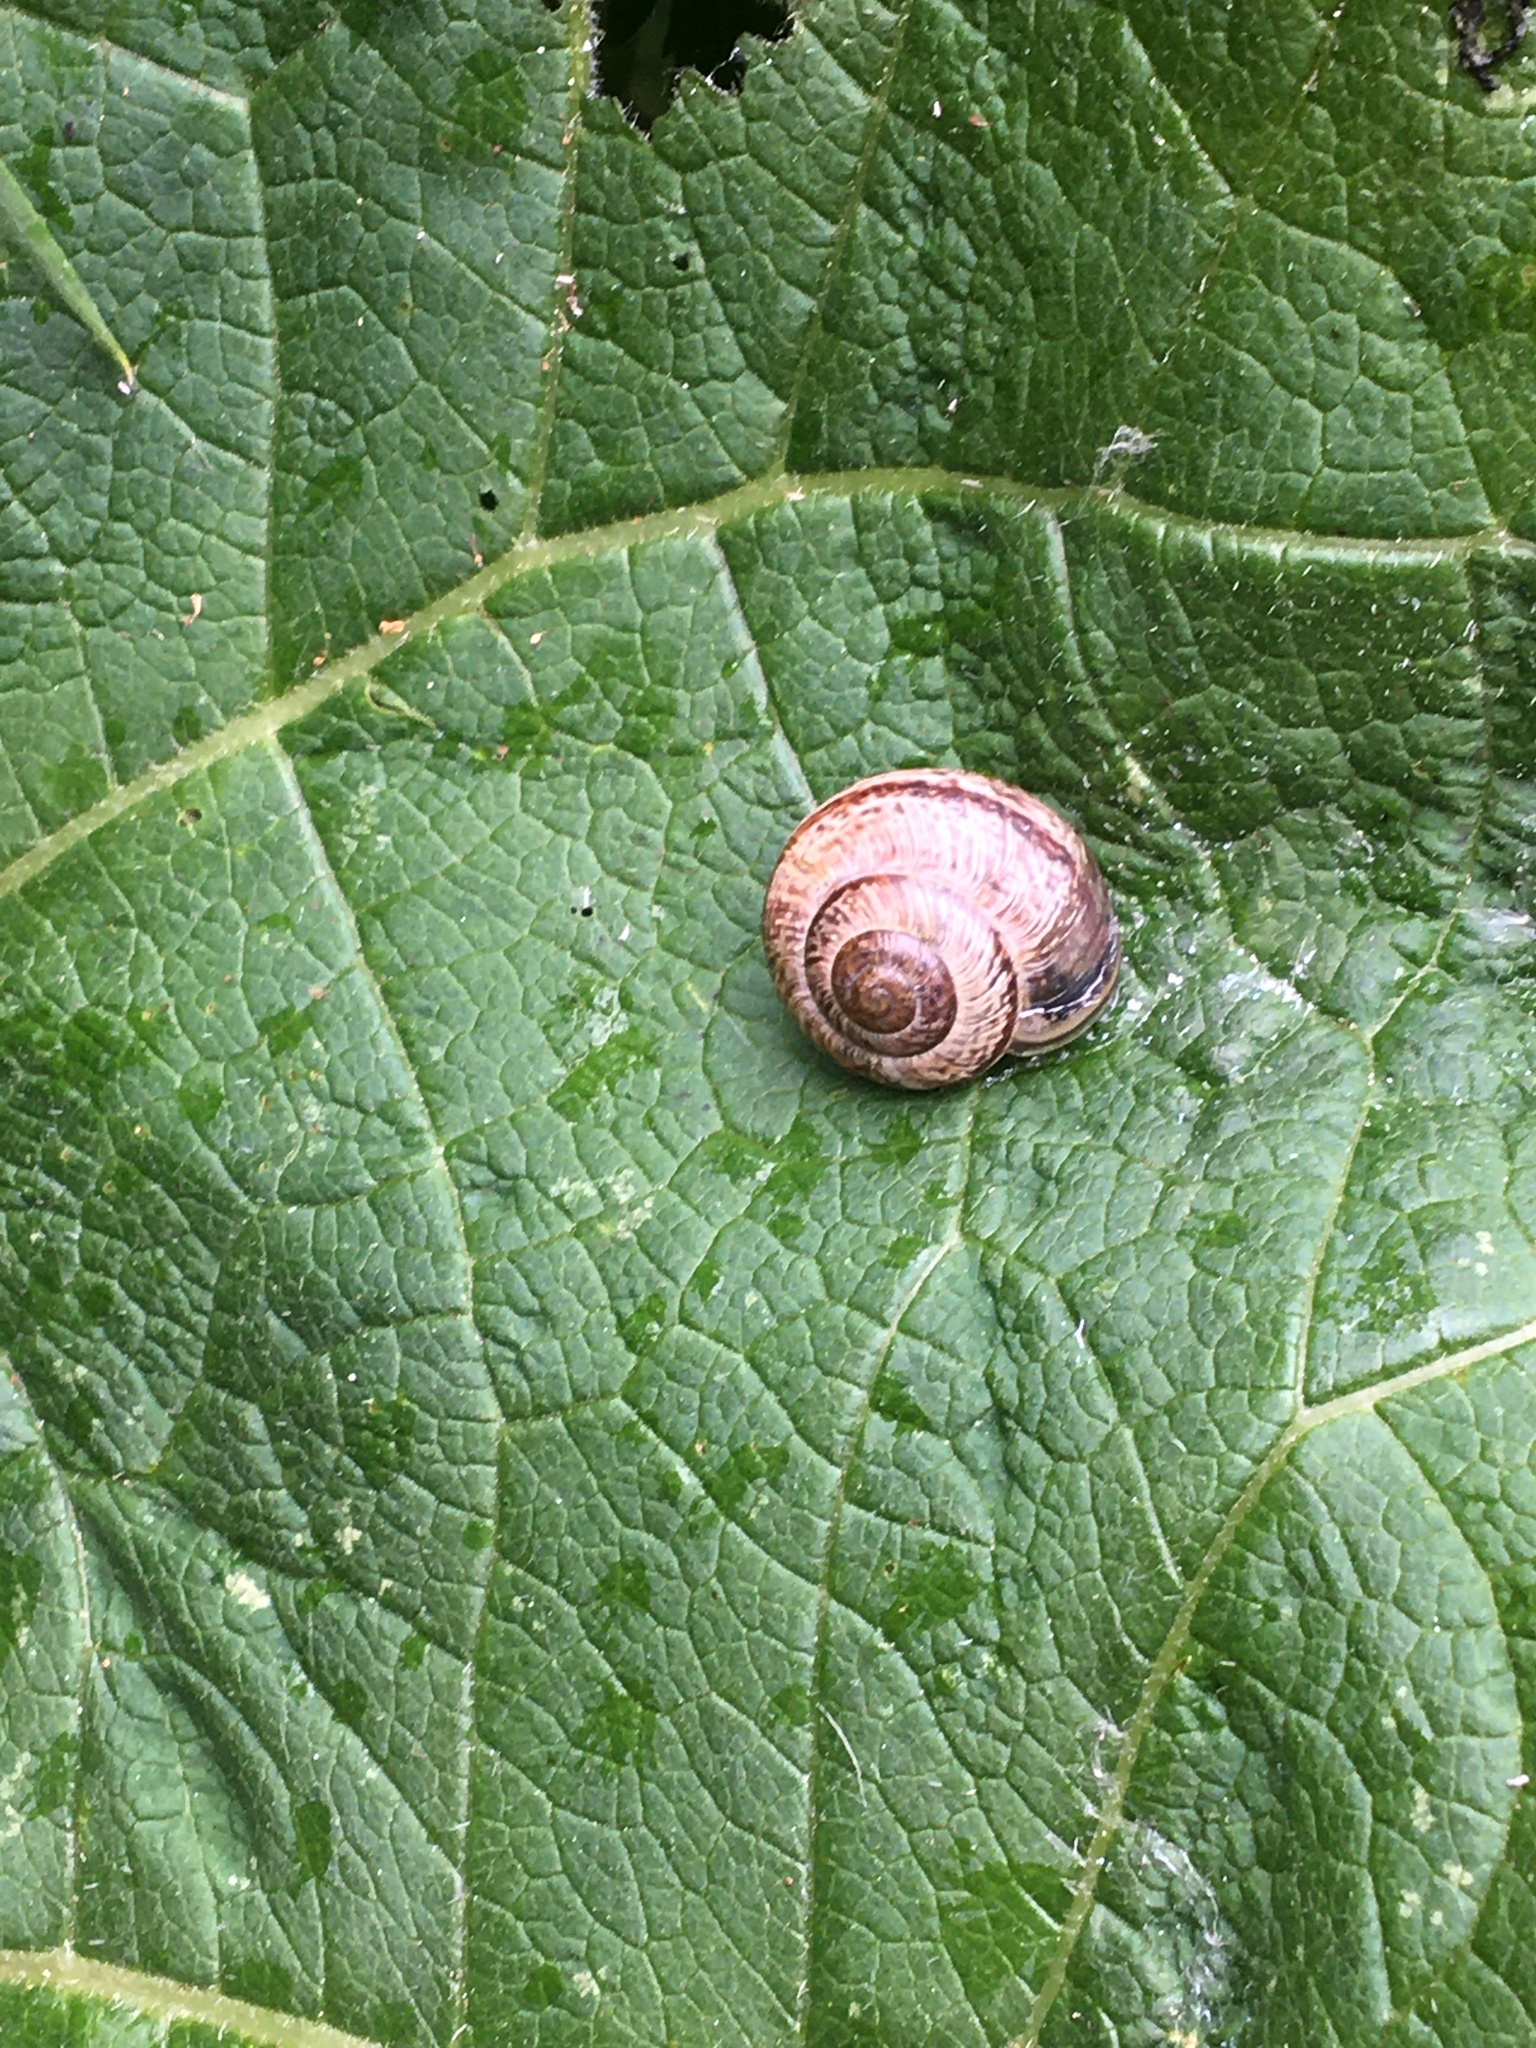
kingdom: Animalia
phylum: Mollusca
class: Gastropoda
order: Stylommatophora
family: Helicidae
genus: Arianta
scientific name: Arianta arbustorum
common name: Copse snail
